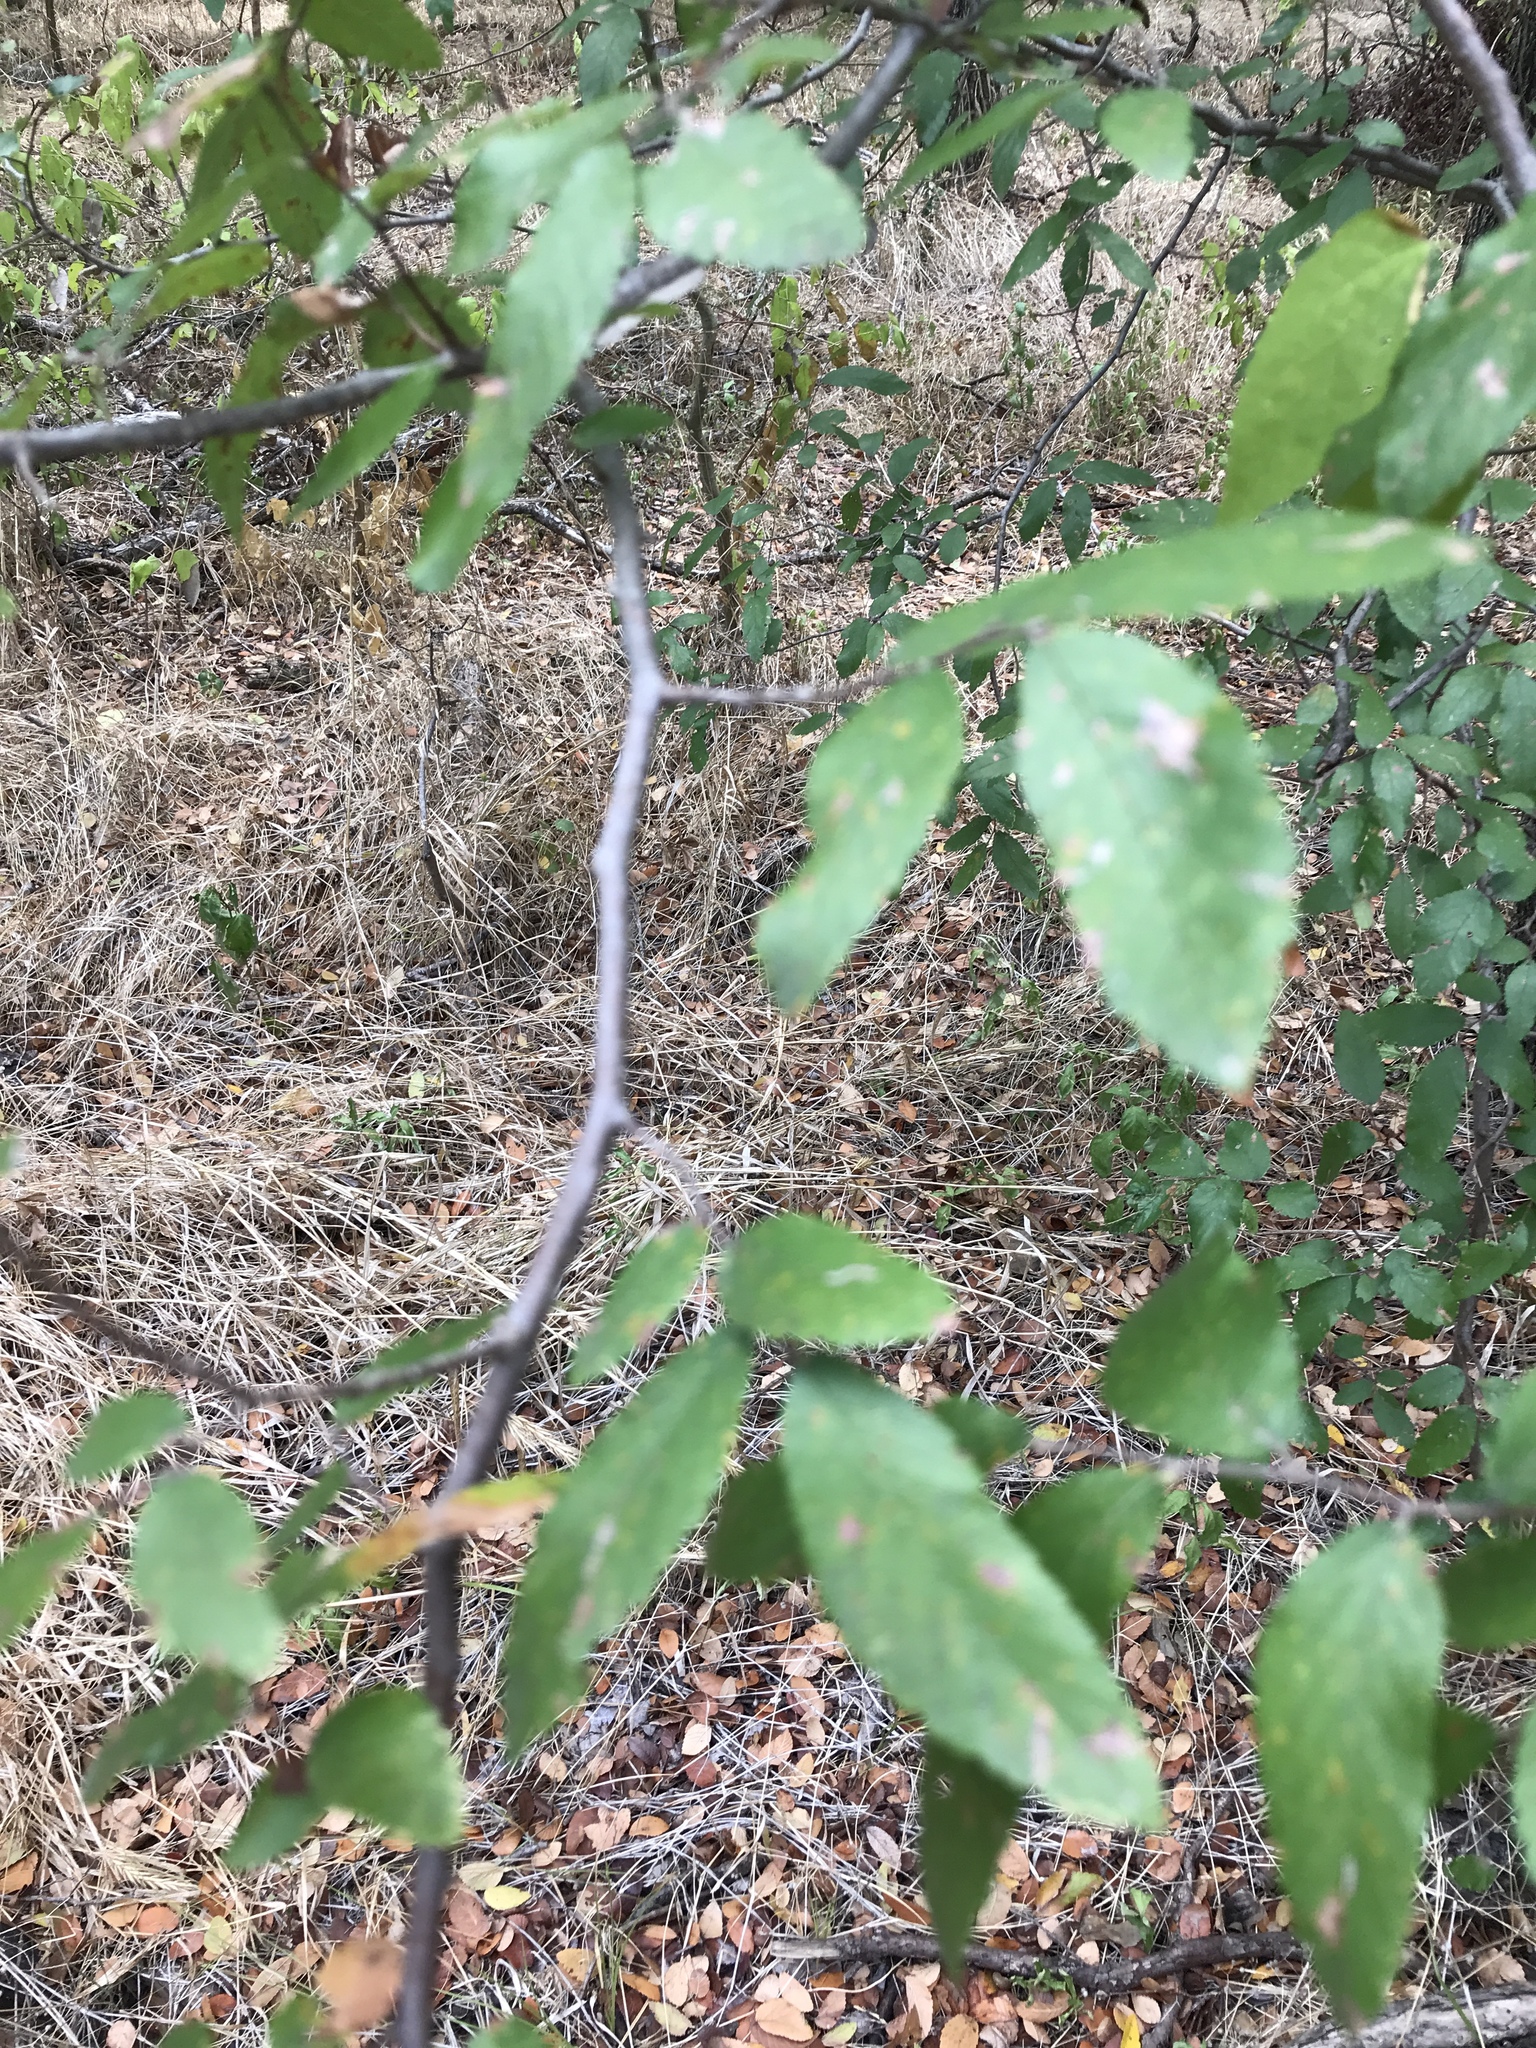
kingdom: Plantae
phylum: Tracheophyta
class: Magnoliopsida
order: Rosales
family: Ulmaceae
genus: Ulmus
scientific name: Ulmus crassifolia
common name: Basket elm
